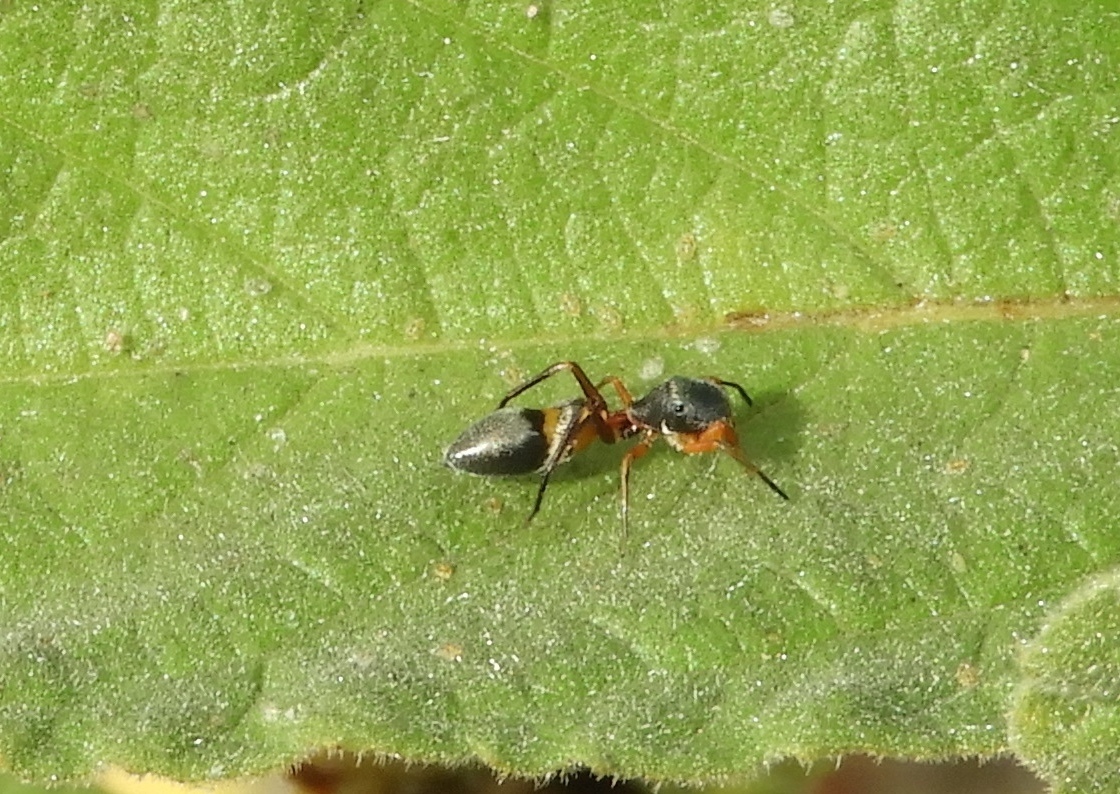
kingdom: Animalia
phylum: Arthropoda
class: Arachnida
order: Araneae
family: Salticidae
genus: Peckhamia
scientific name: Peckhamia
